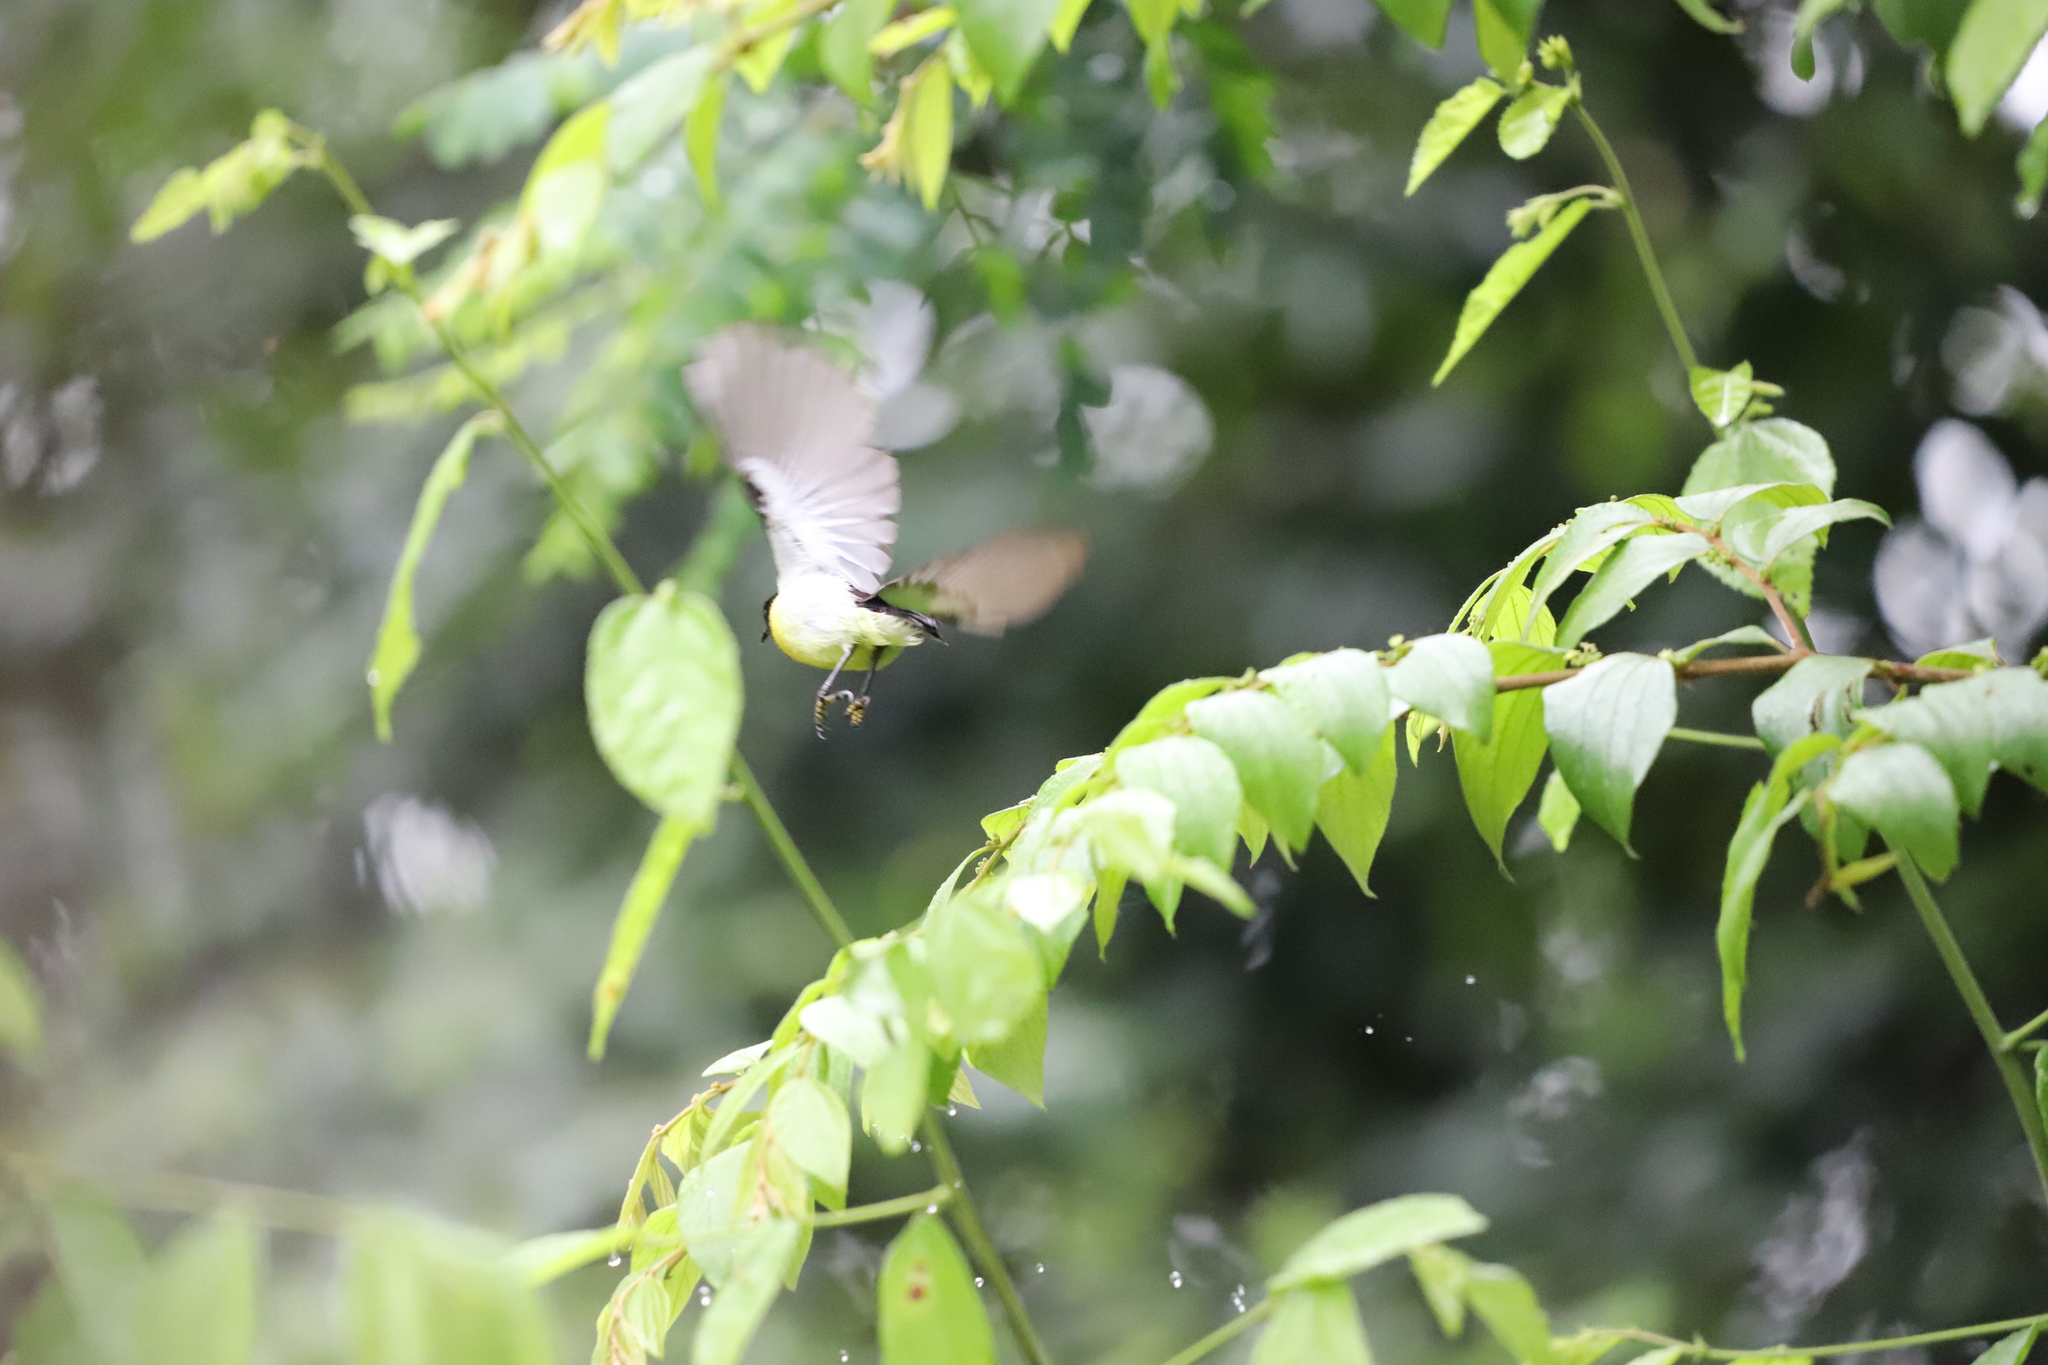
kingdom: Animalia
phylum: Chordata
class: Aves
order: Passeriformes
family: Nectariniidae
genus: Leptocoma
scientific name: Leptocoma zeylonica
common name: Purple-rumped sunbird
